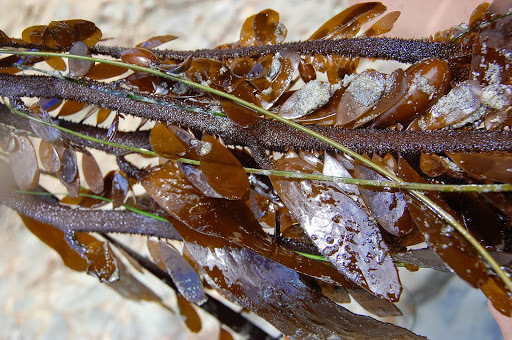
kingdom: Chromista
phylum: Ochrophyta
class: Phaeophyceae
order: Laminariales
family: Lessoniaceae
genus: Egregia
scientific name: Egregia menziesii
